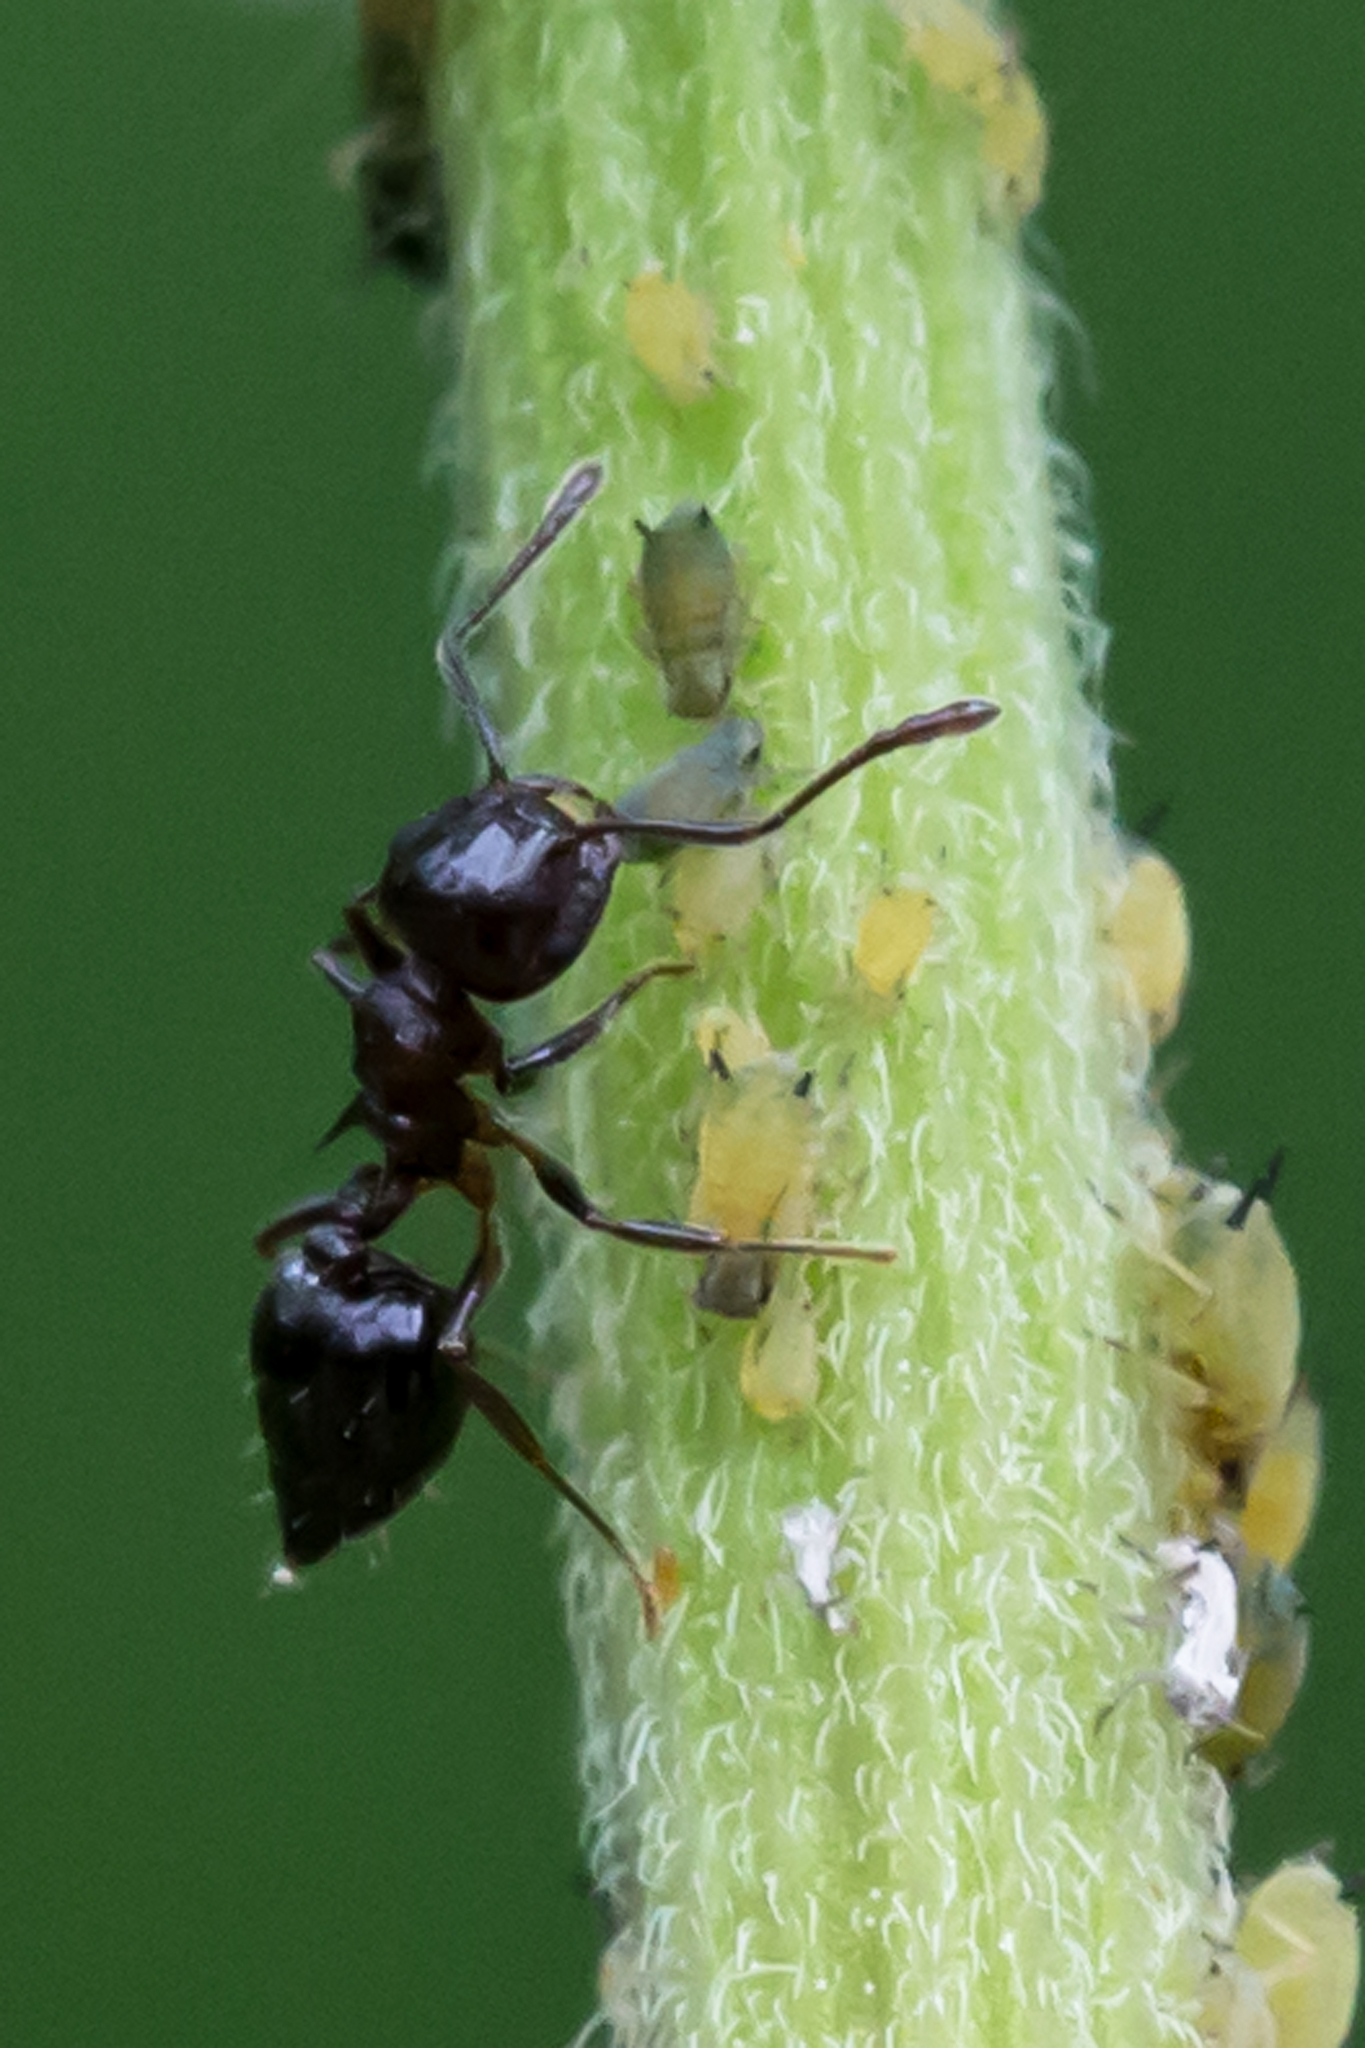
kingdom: Animalia
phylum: Arthropoda
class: Insecta
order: Hymenoptera
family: Formicidae
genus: Crematogaster
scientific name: Crematogaster cerasi
